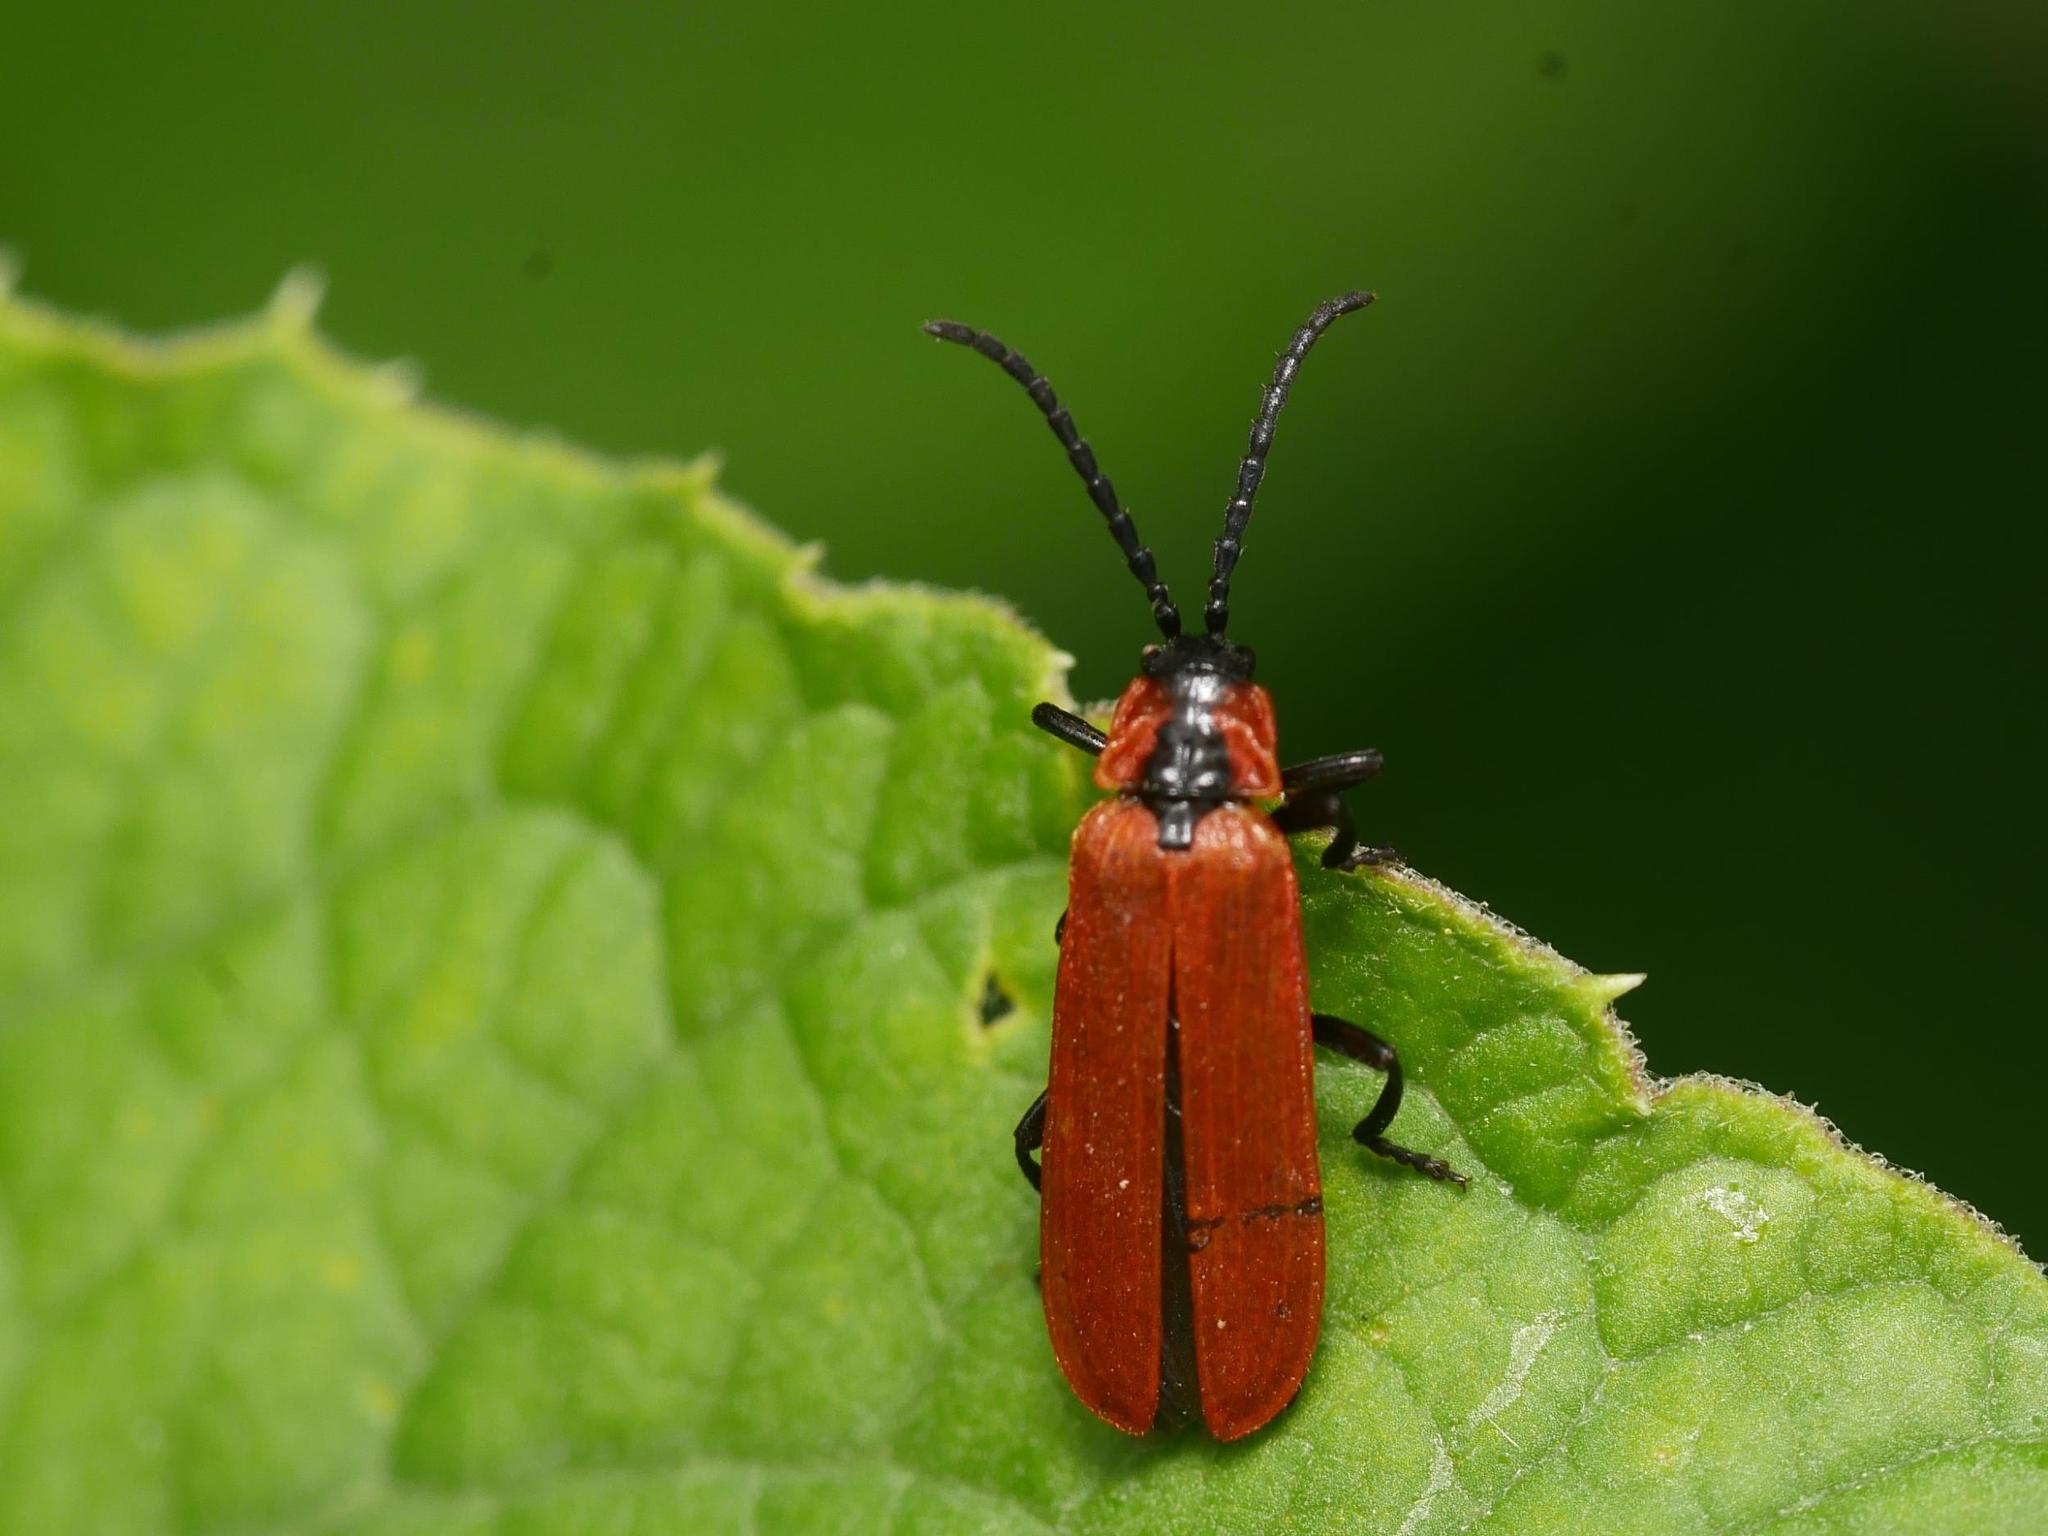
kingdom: Animalia
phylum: Arthropoda
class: Insecta
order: Coleoptera
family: Lycidae
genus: Lygistopterus
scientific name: Lygistopterus sanguineus
